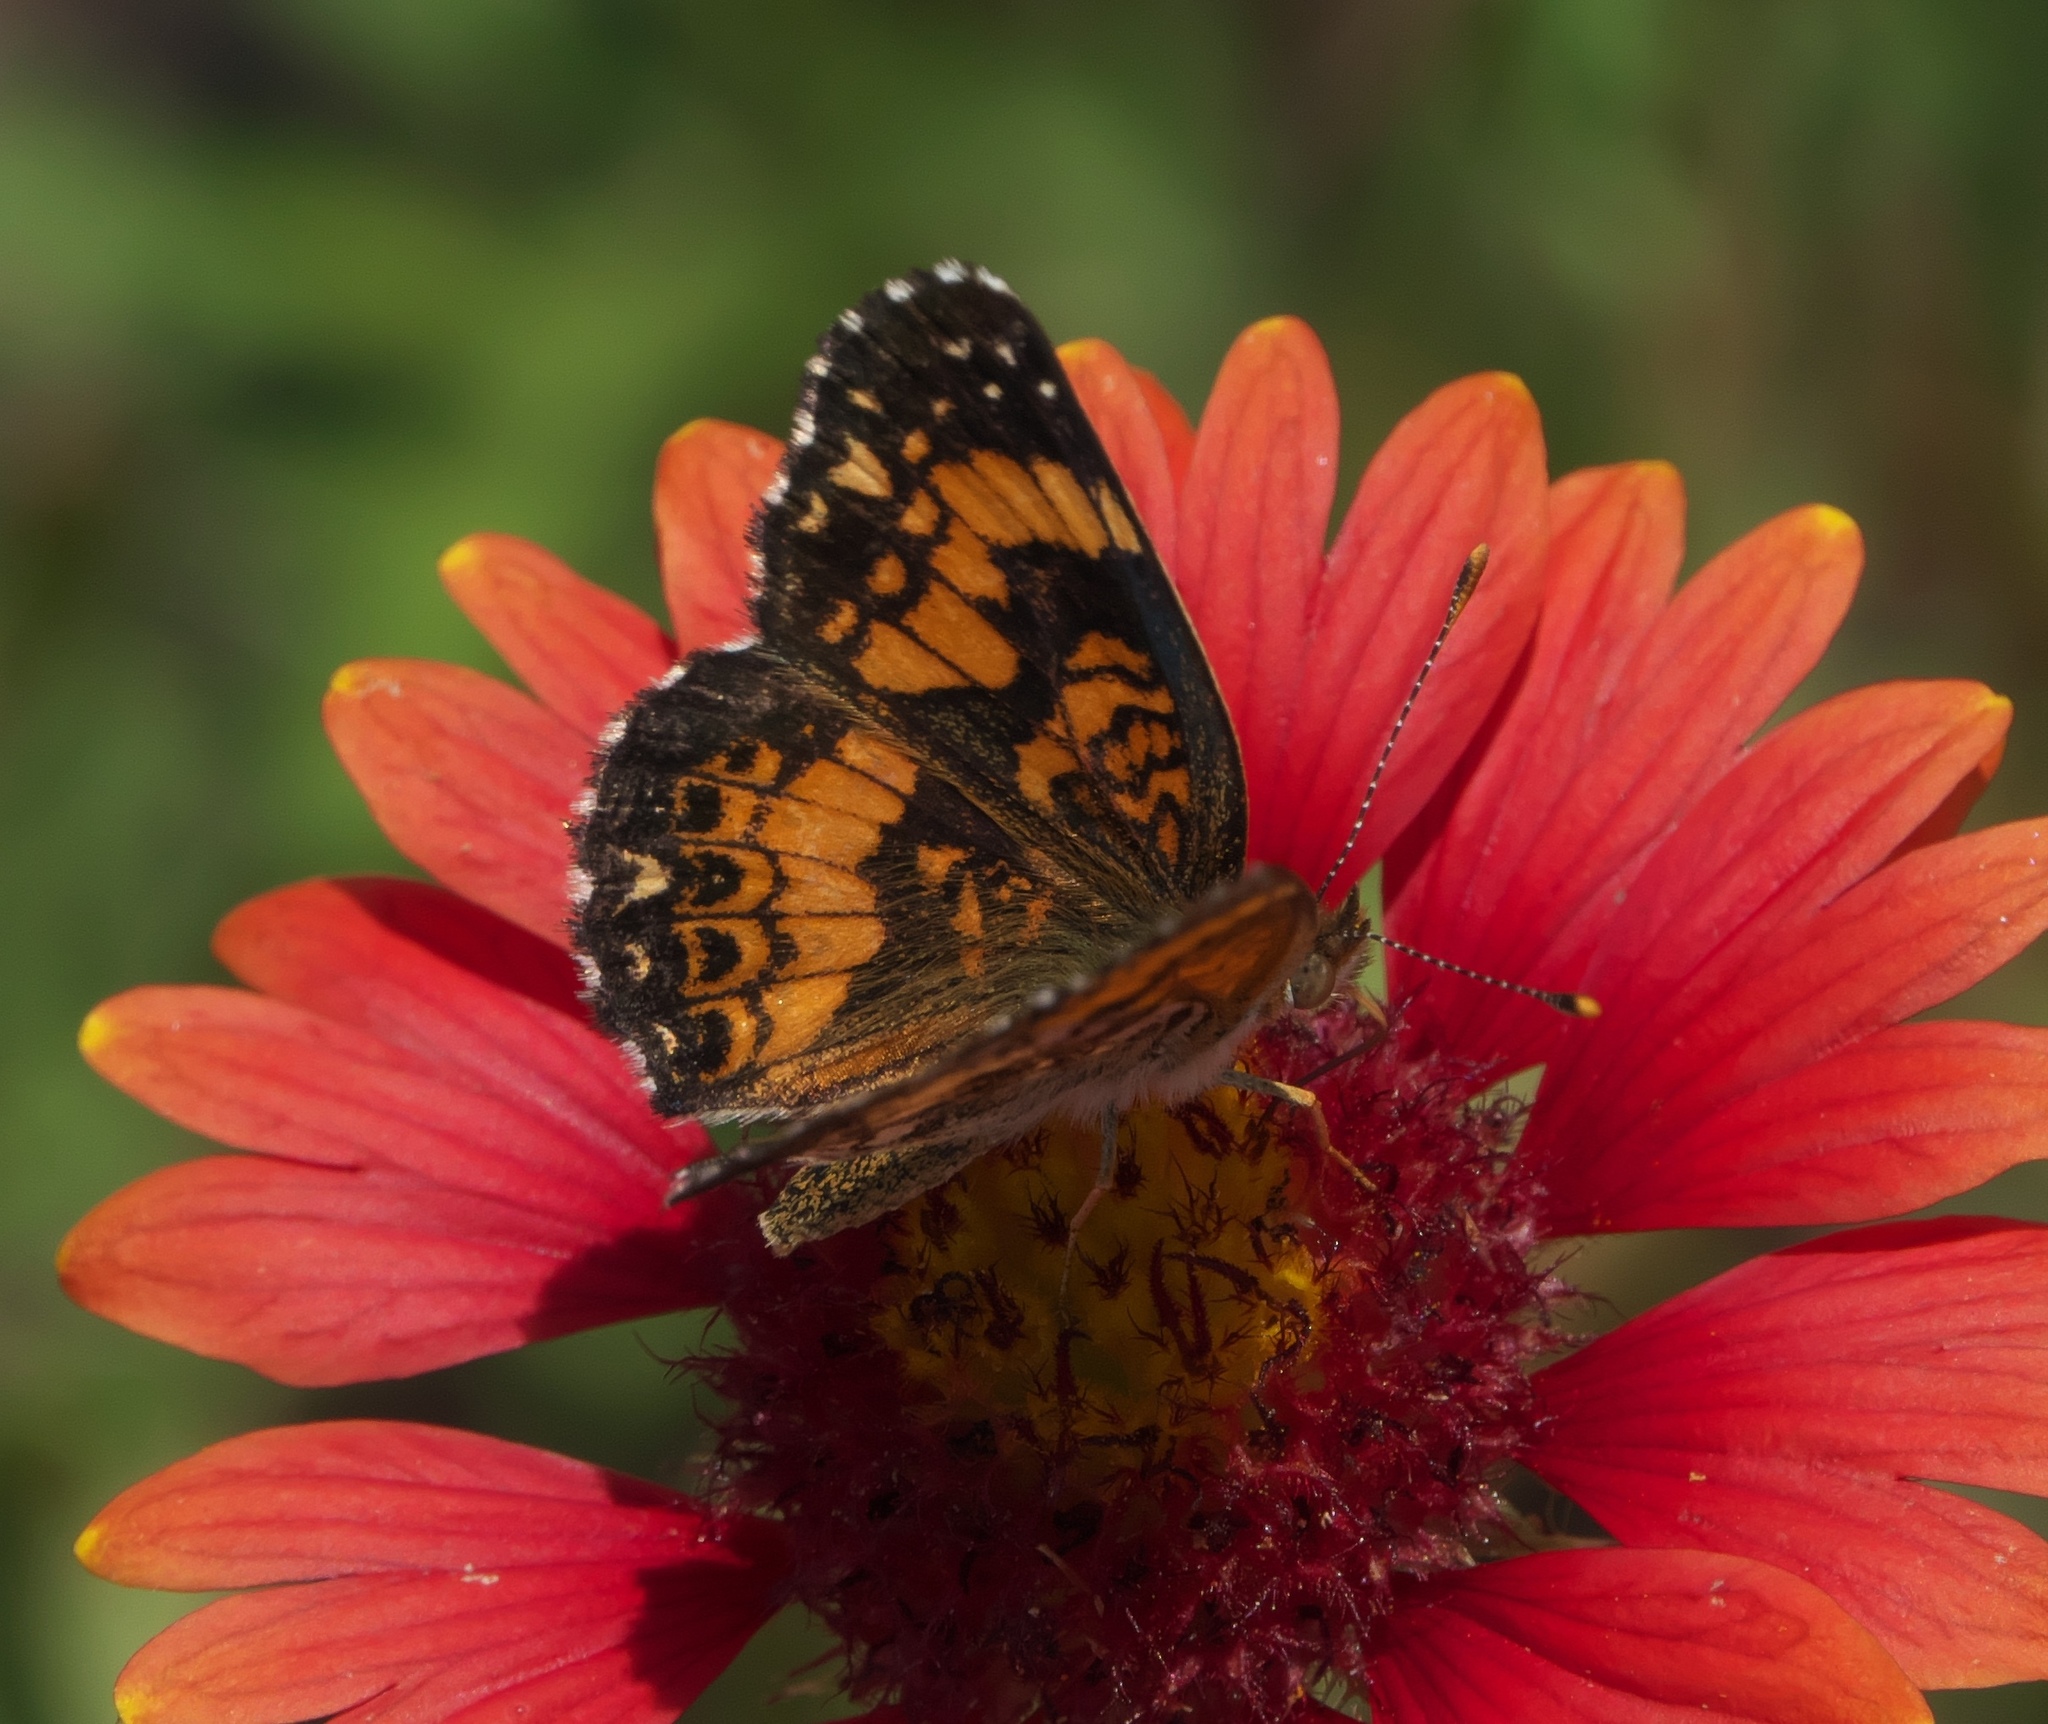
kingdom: Animalia
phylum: Arthropoda
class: Insecta
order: Lepidoptera
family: Nymphalidae
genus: Chlosyne
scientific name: Chlosyne gorgone
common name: Gorgone checkerspot
